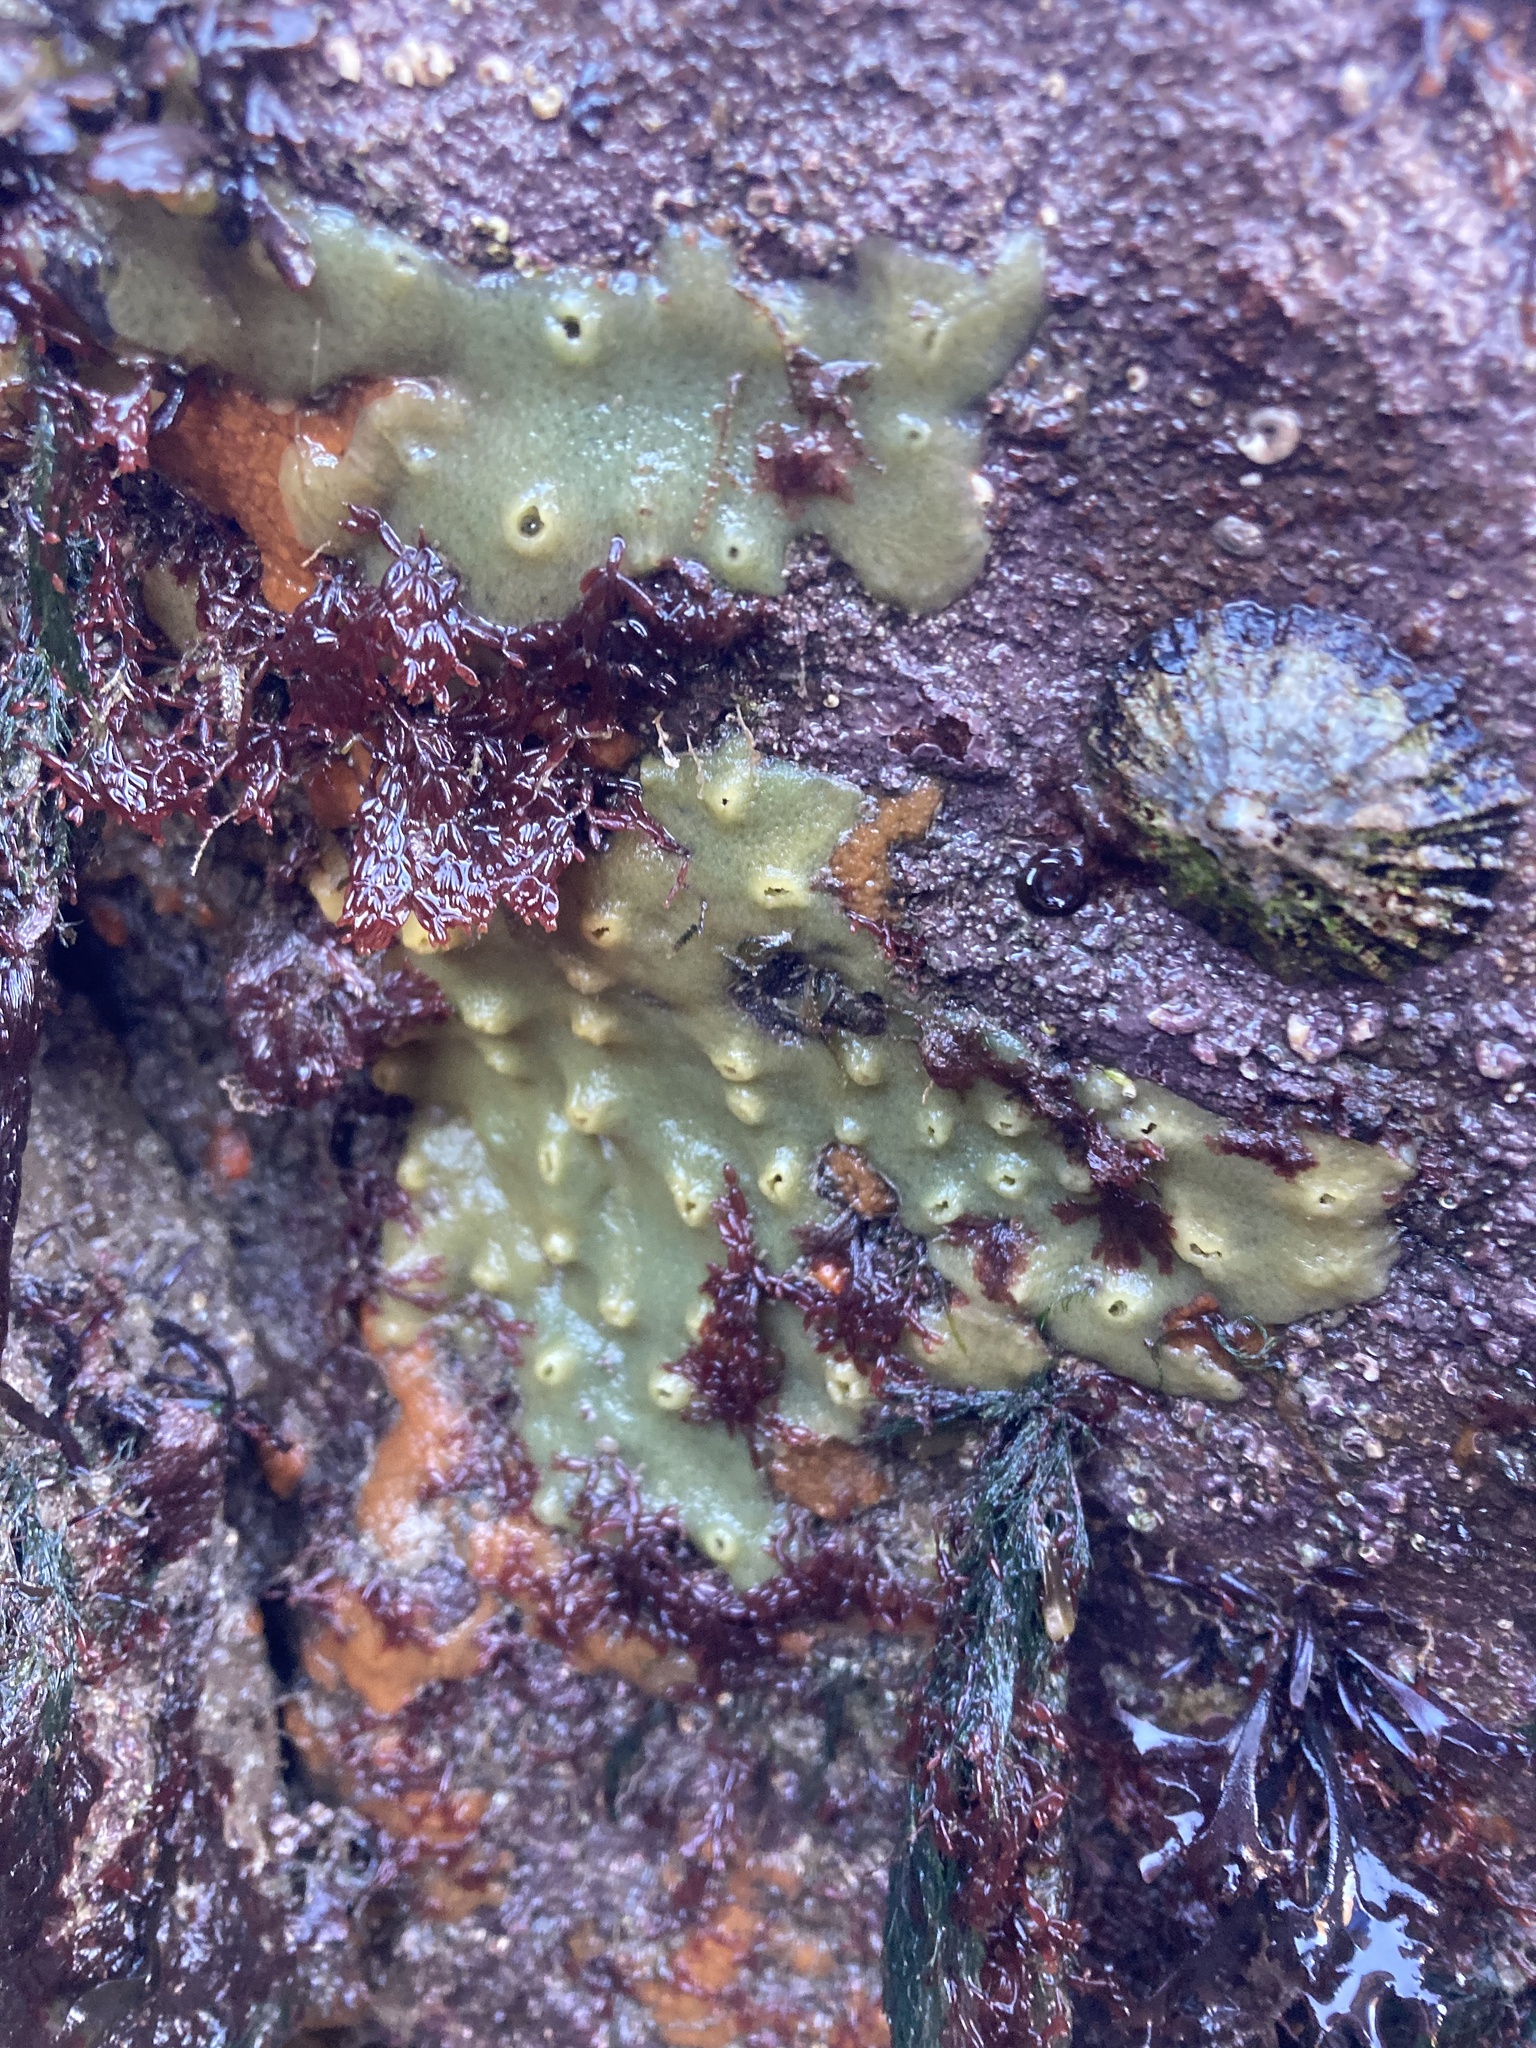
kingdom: Animalia
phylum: Porifera
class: Demospongiae
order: Suberitida
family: Halichondriidae
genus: Halichondria
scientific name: Halichondria panicea
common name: Breadcrumb sponge
